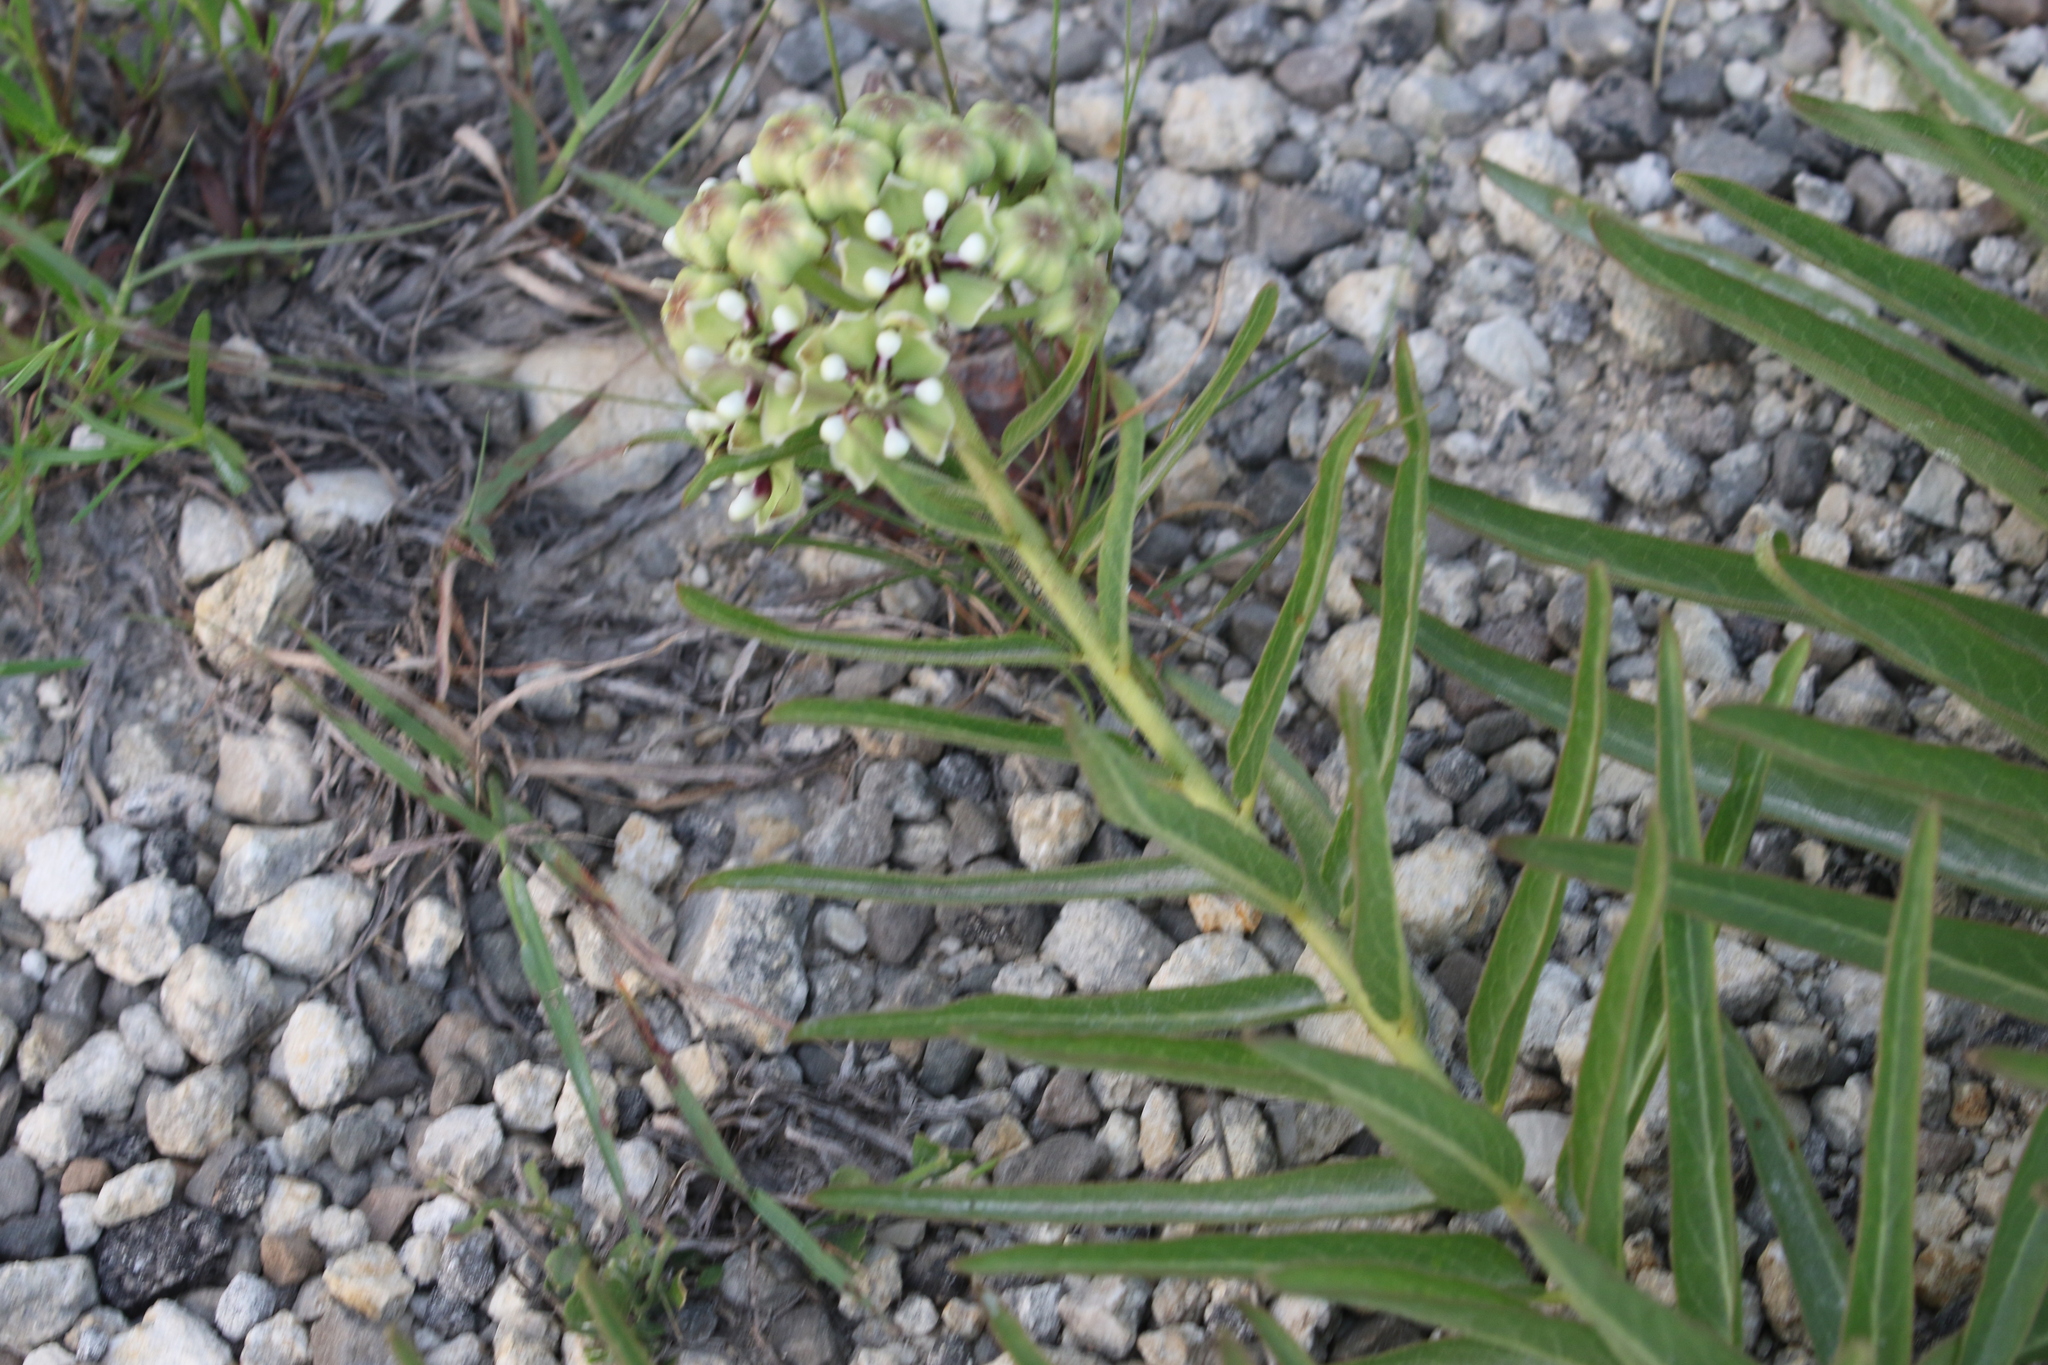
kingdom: Plantae
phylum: Tracheophyta
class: Magnoliopsida
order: Gentianales
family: Apocynaceae
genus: Asclepias
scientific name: Asclepias asperula
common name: Antelope horns
